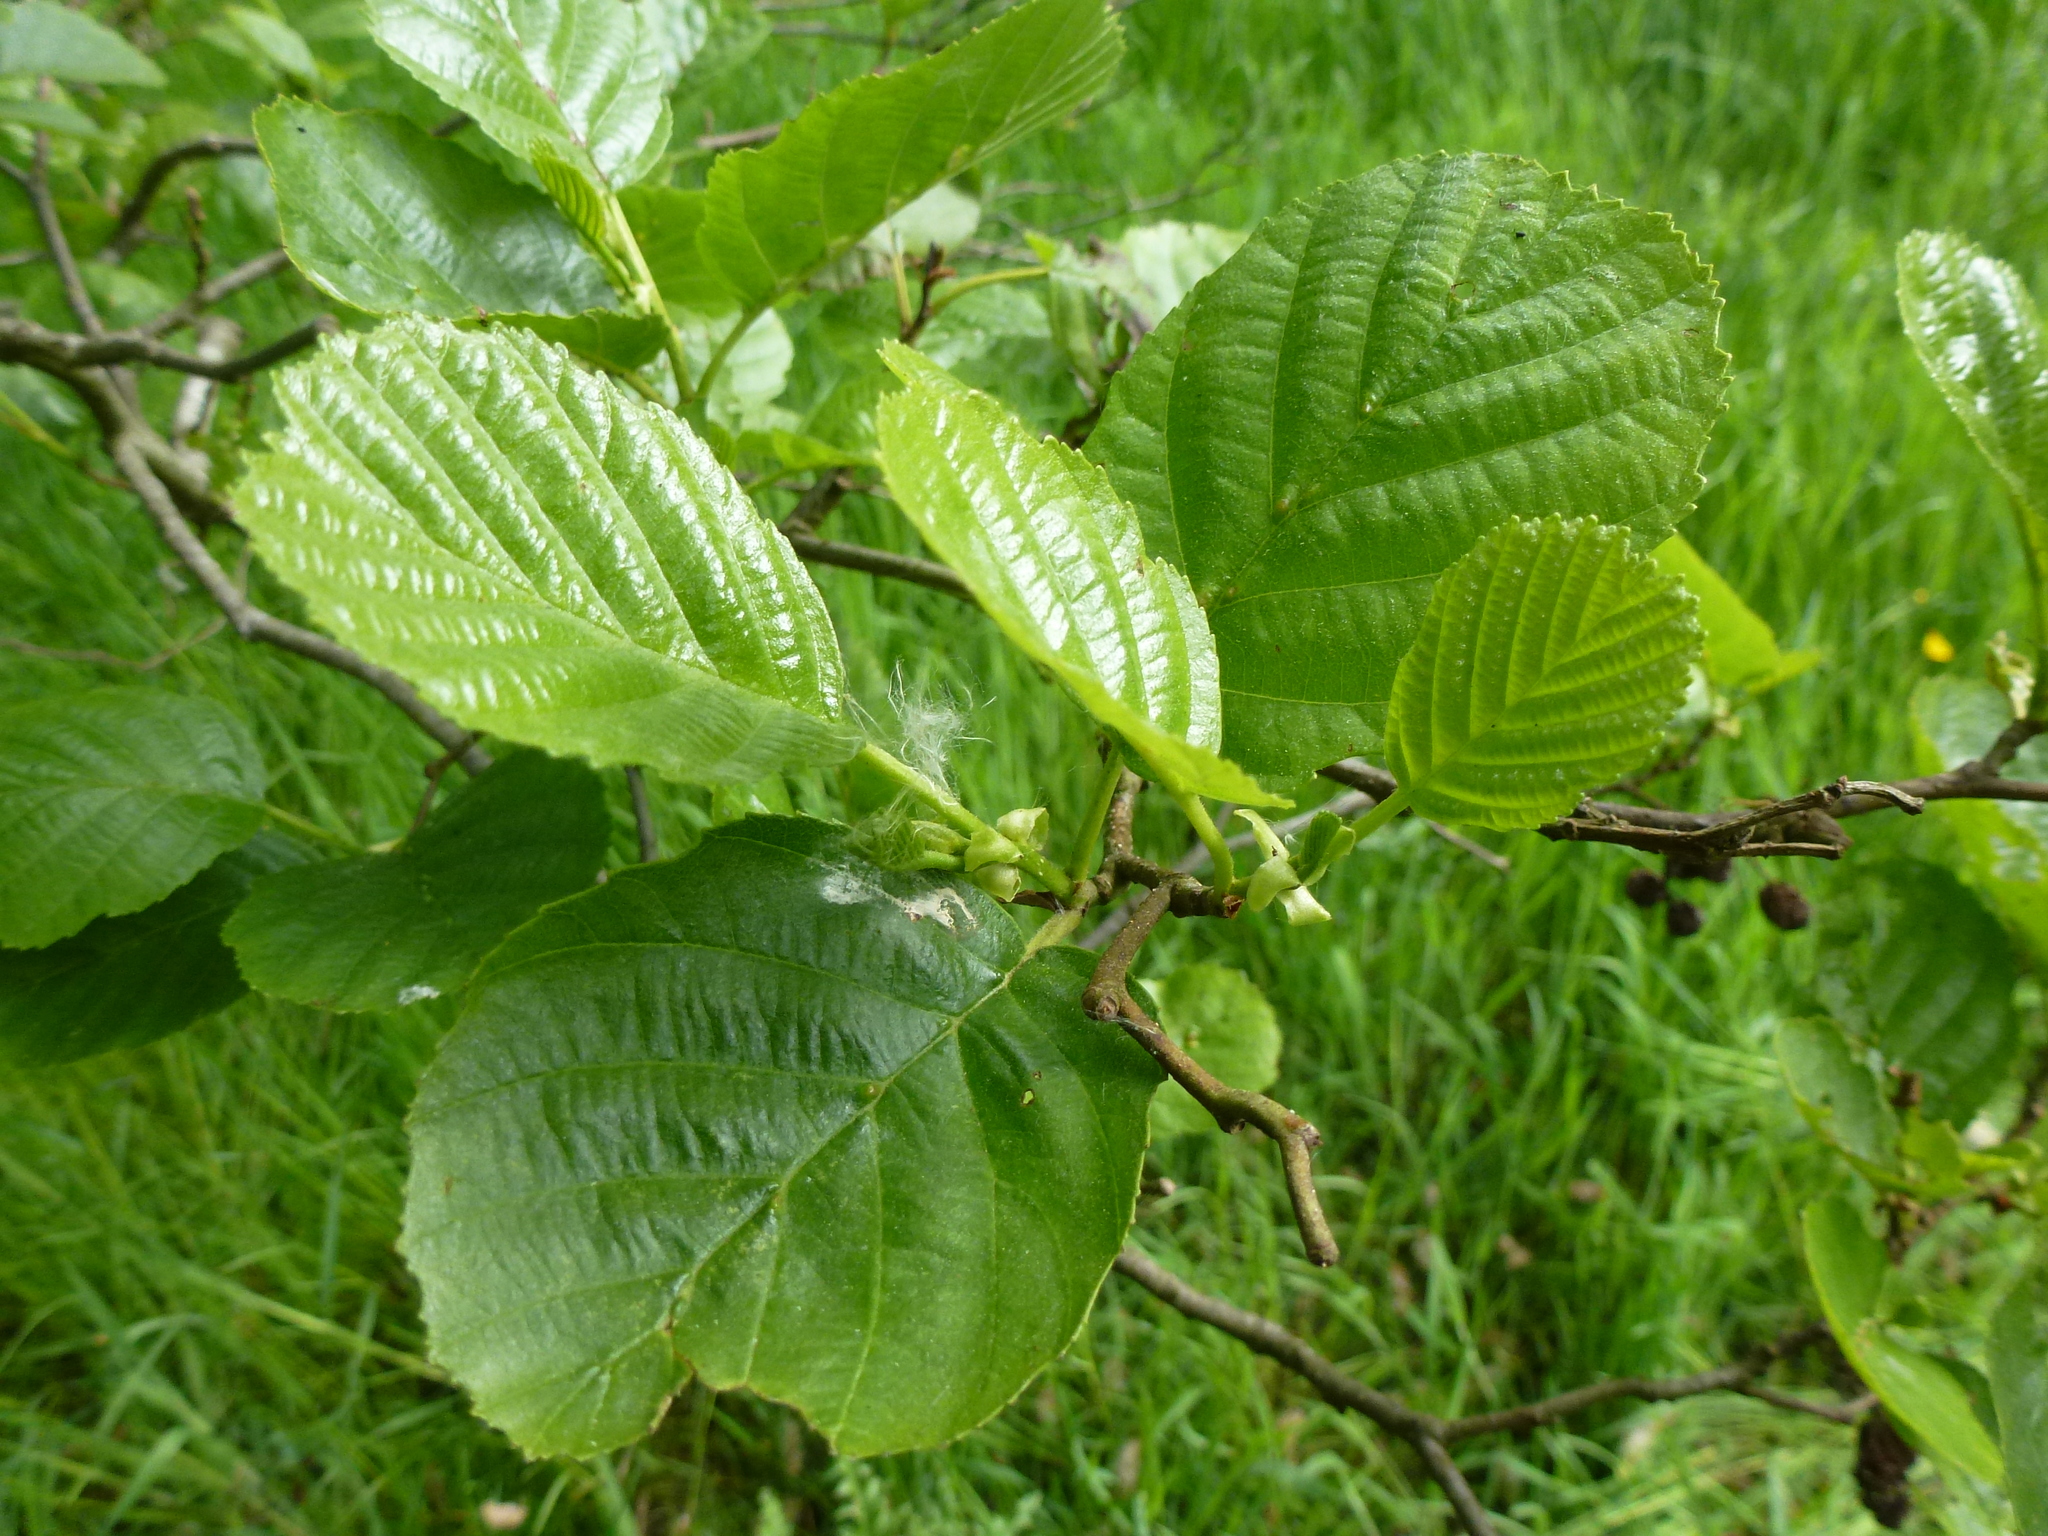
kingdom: Plantae
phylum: Tracheophyta
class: Magnoliopsida
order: Fagales
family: Betulaceae
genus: Alnus
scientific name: Alnus glutinosa
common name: Black alder
